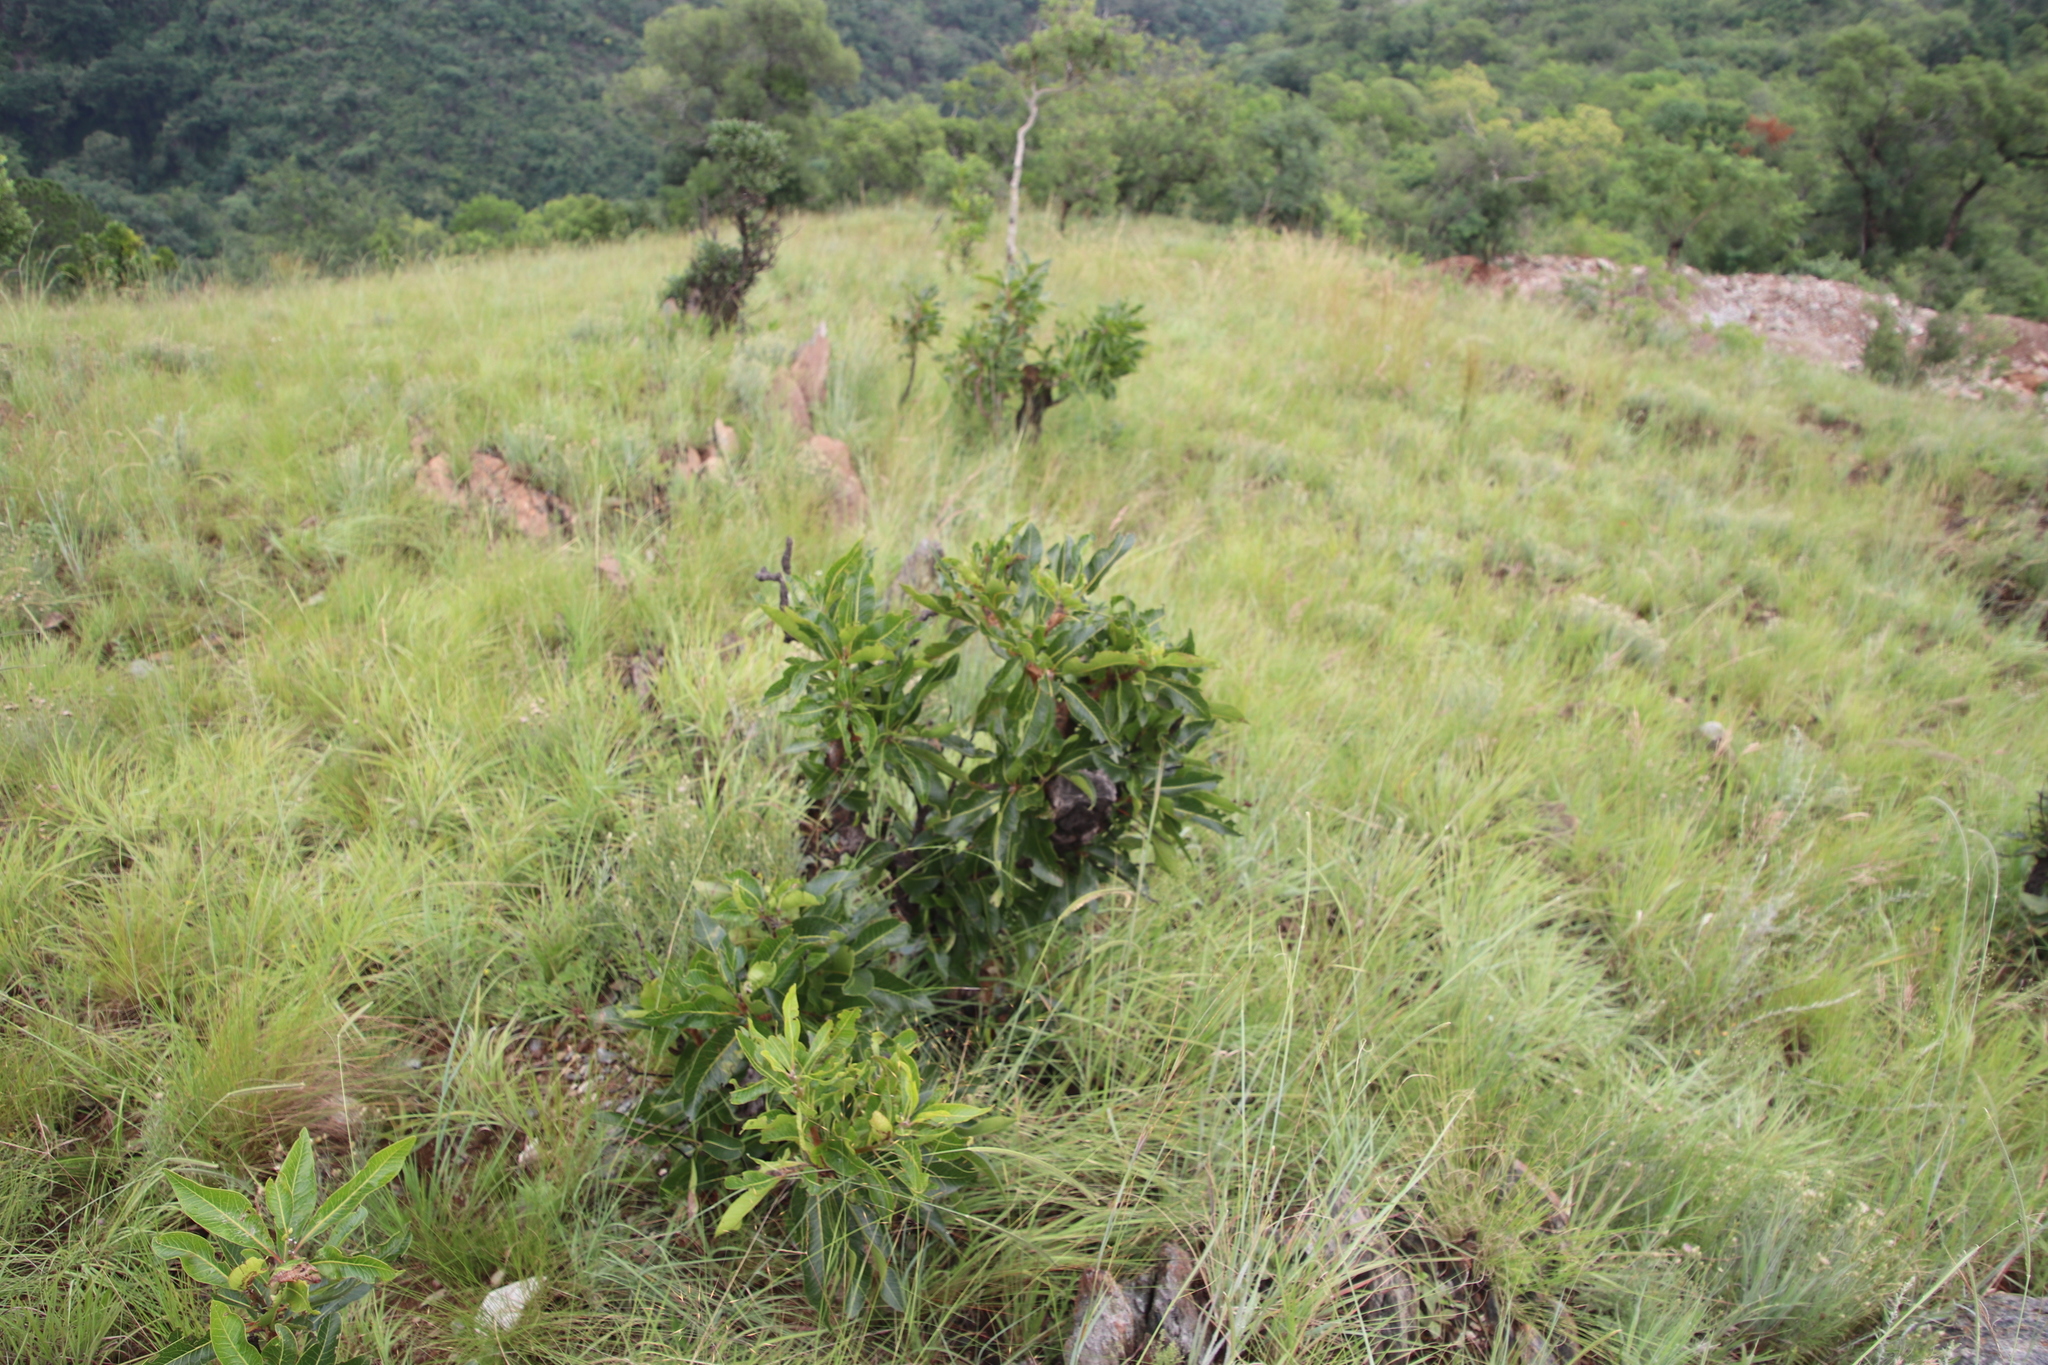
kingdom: Plantae
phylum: Tracheophyta
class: Magnoliopsida
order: Proteales
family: Proteaceae
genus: Faurea
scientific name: Faurea rochetiana
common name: Broad-leaved beech
